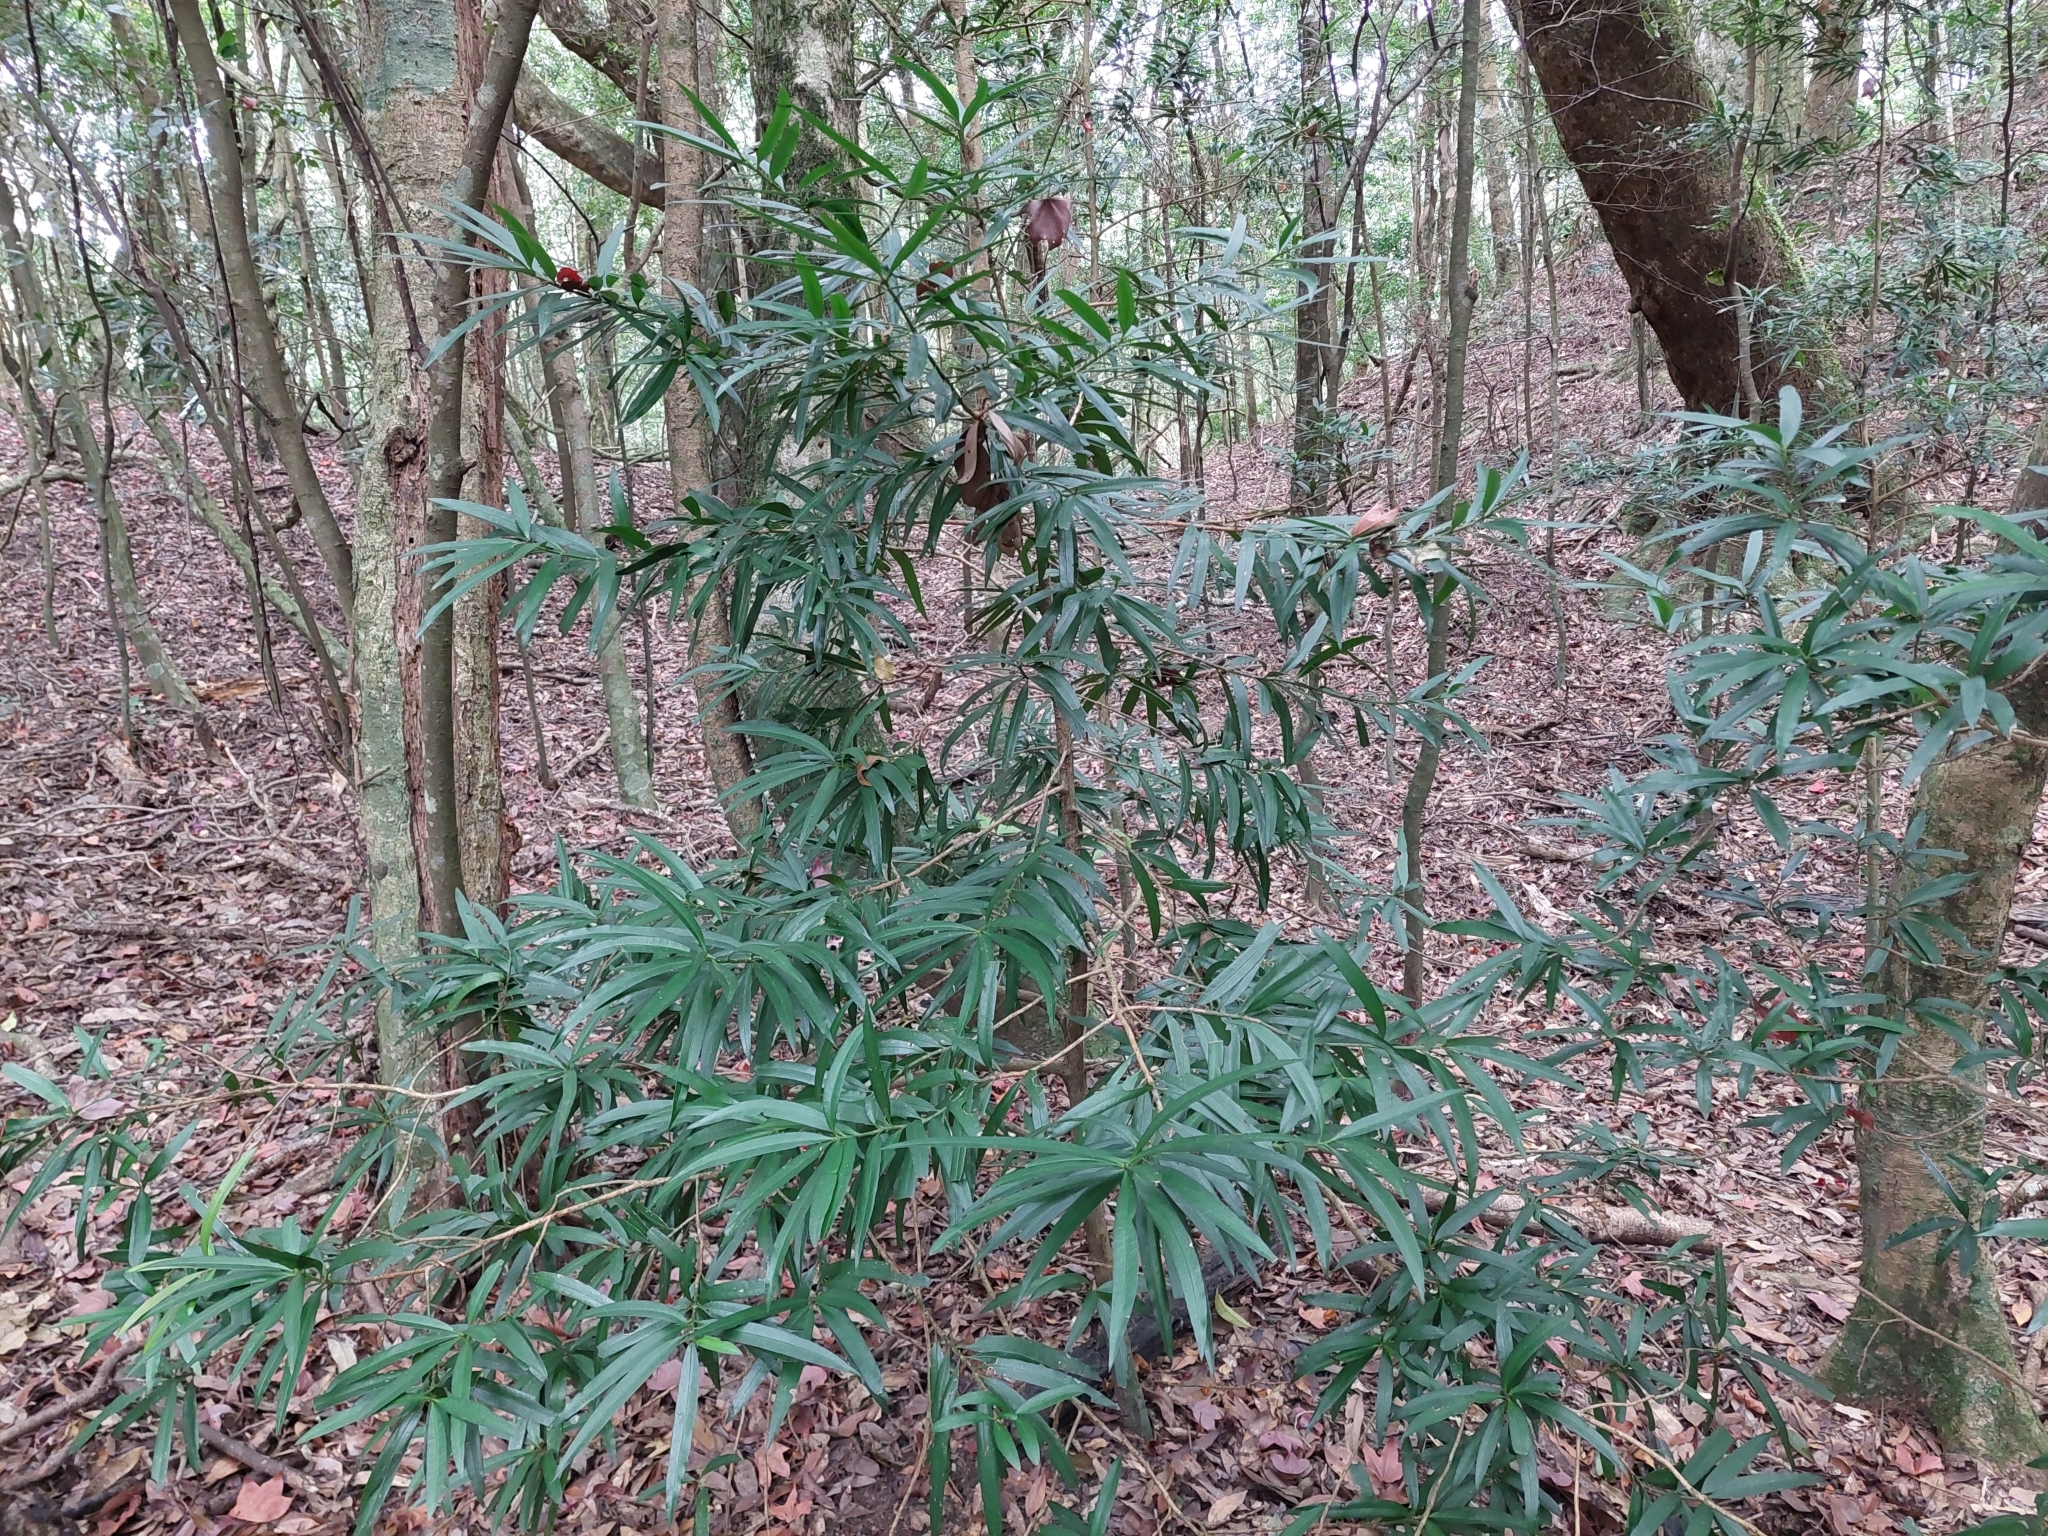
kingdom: Plantae
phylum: Tracheophyta
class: Pinopsida
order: Pinales
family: Podocarpaceae
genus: Podocarpus
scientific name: Podocarpus nakaii
